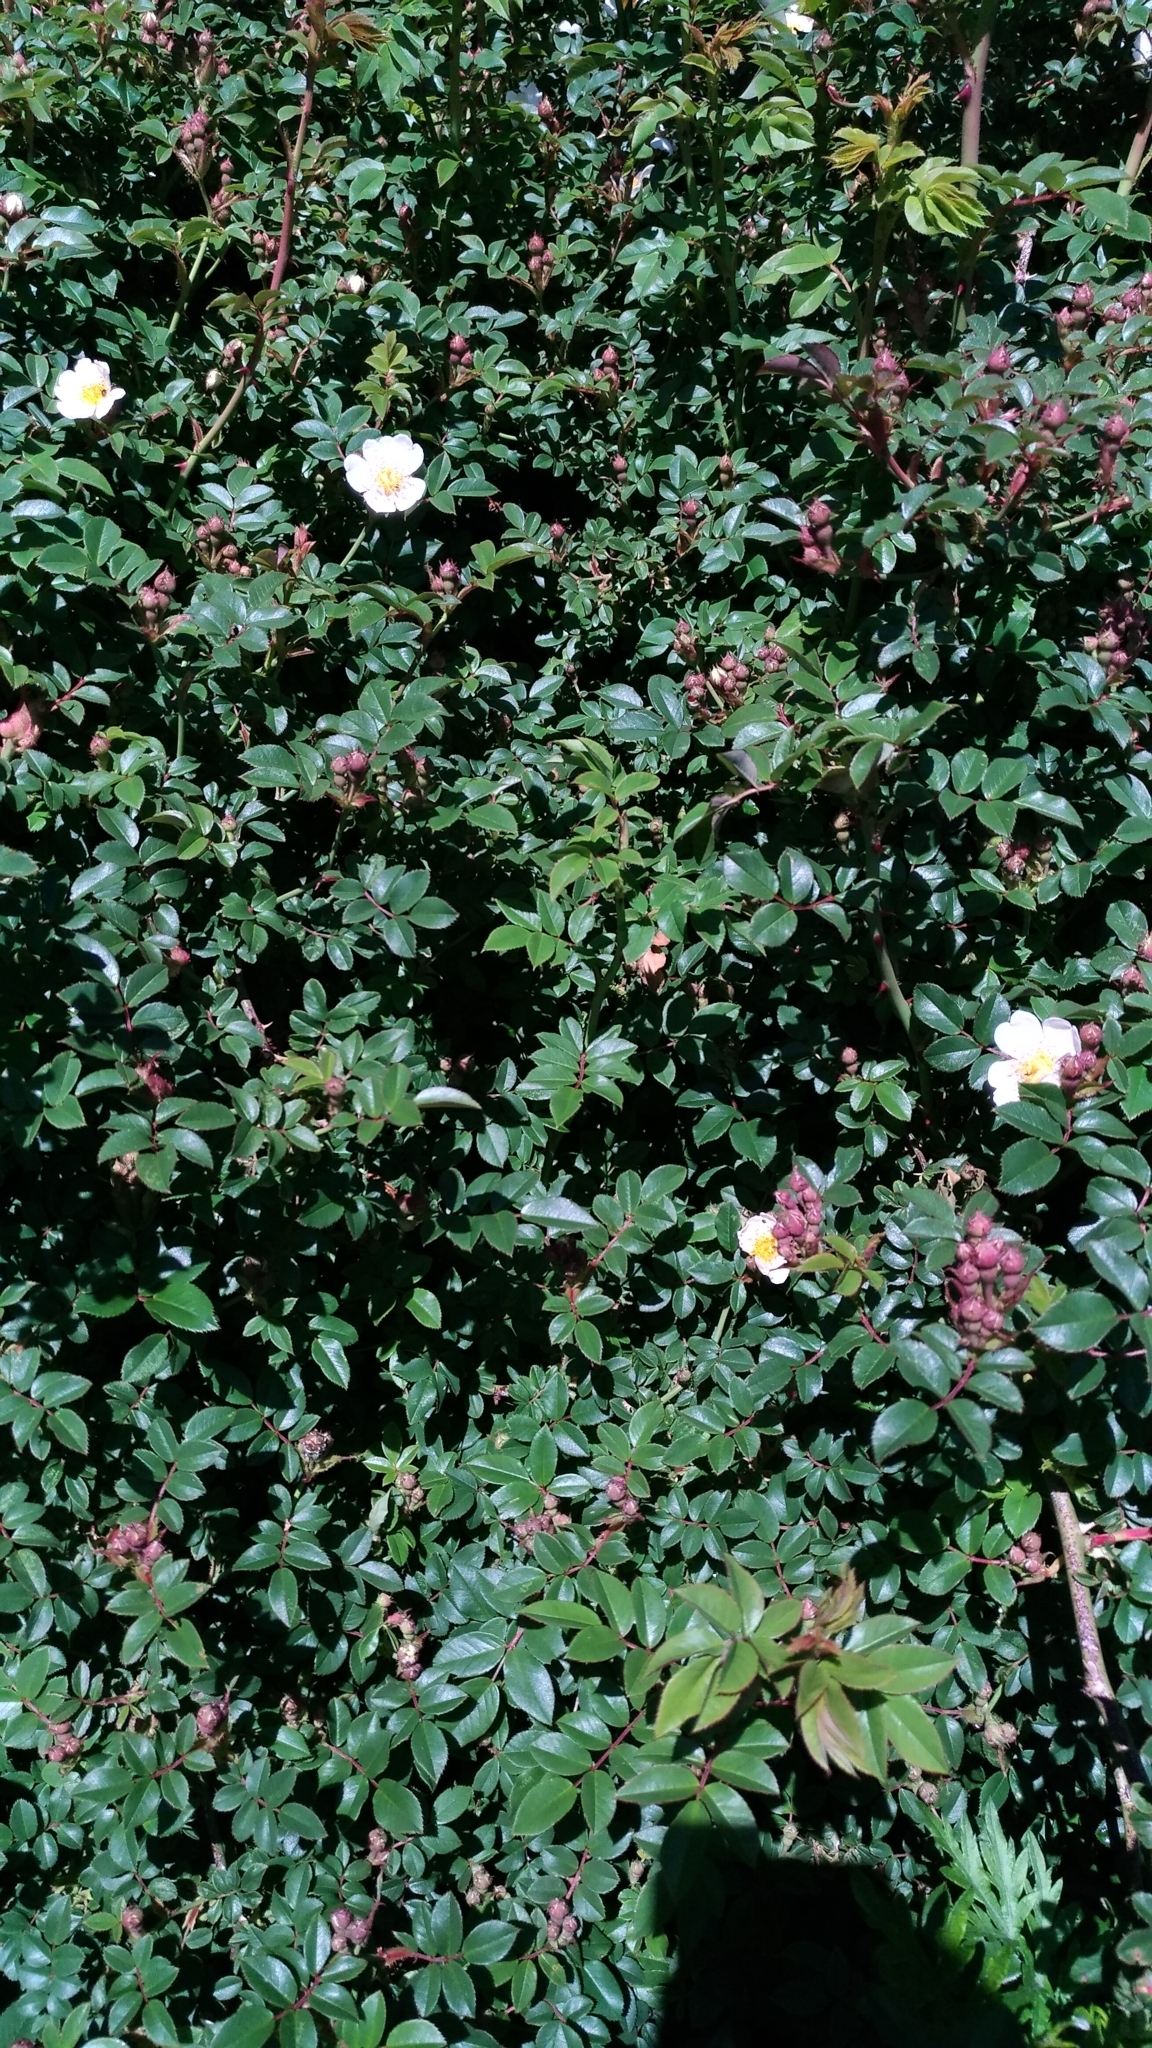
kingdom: Plantae
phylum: Tracheophyta
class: Magnoliopsida
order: Rosales
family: Rosaceae
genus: Rosa
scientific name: Rosa transmorrisonensis
